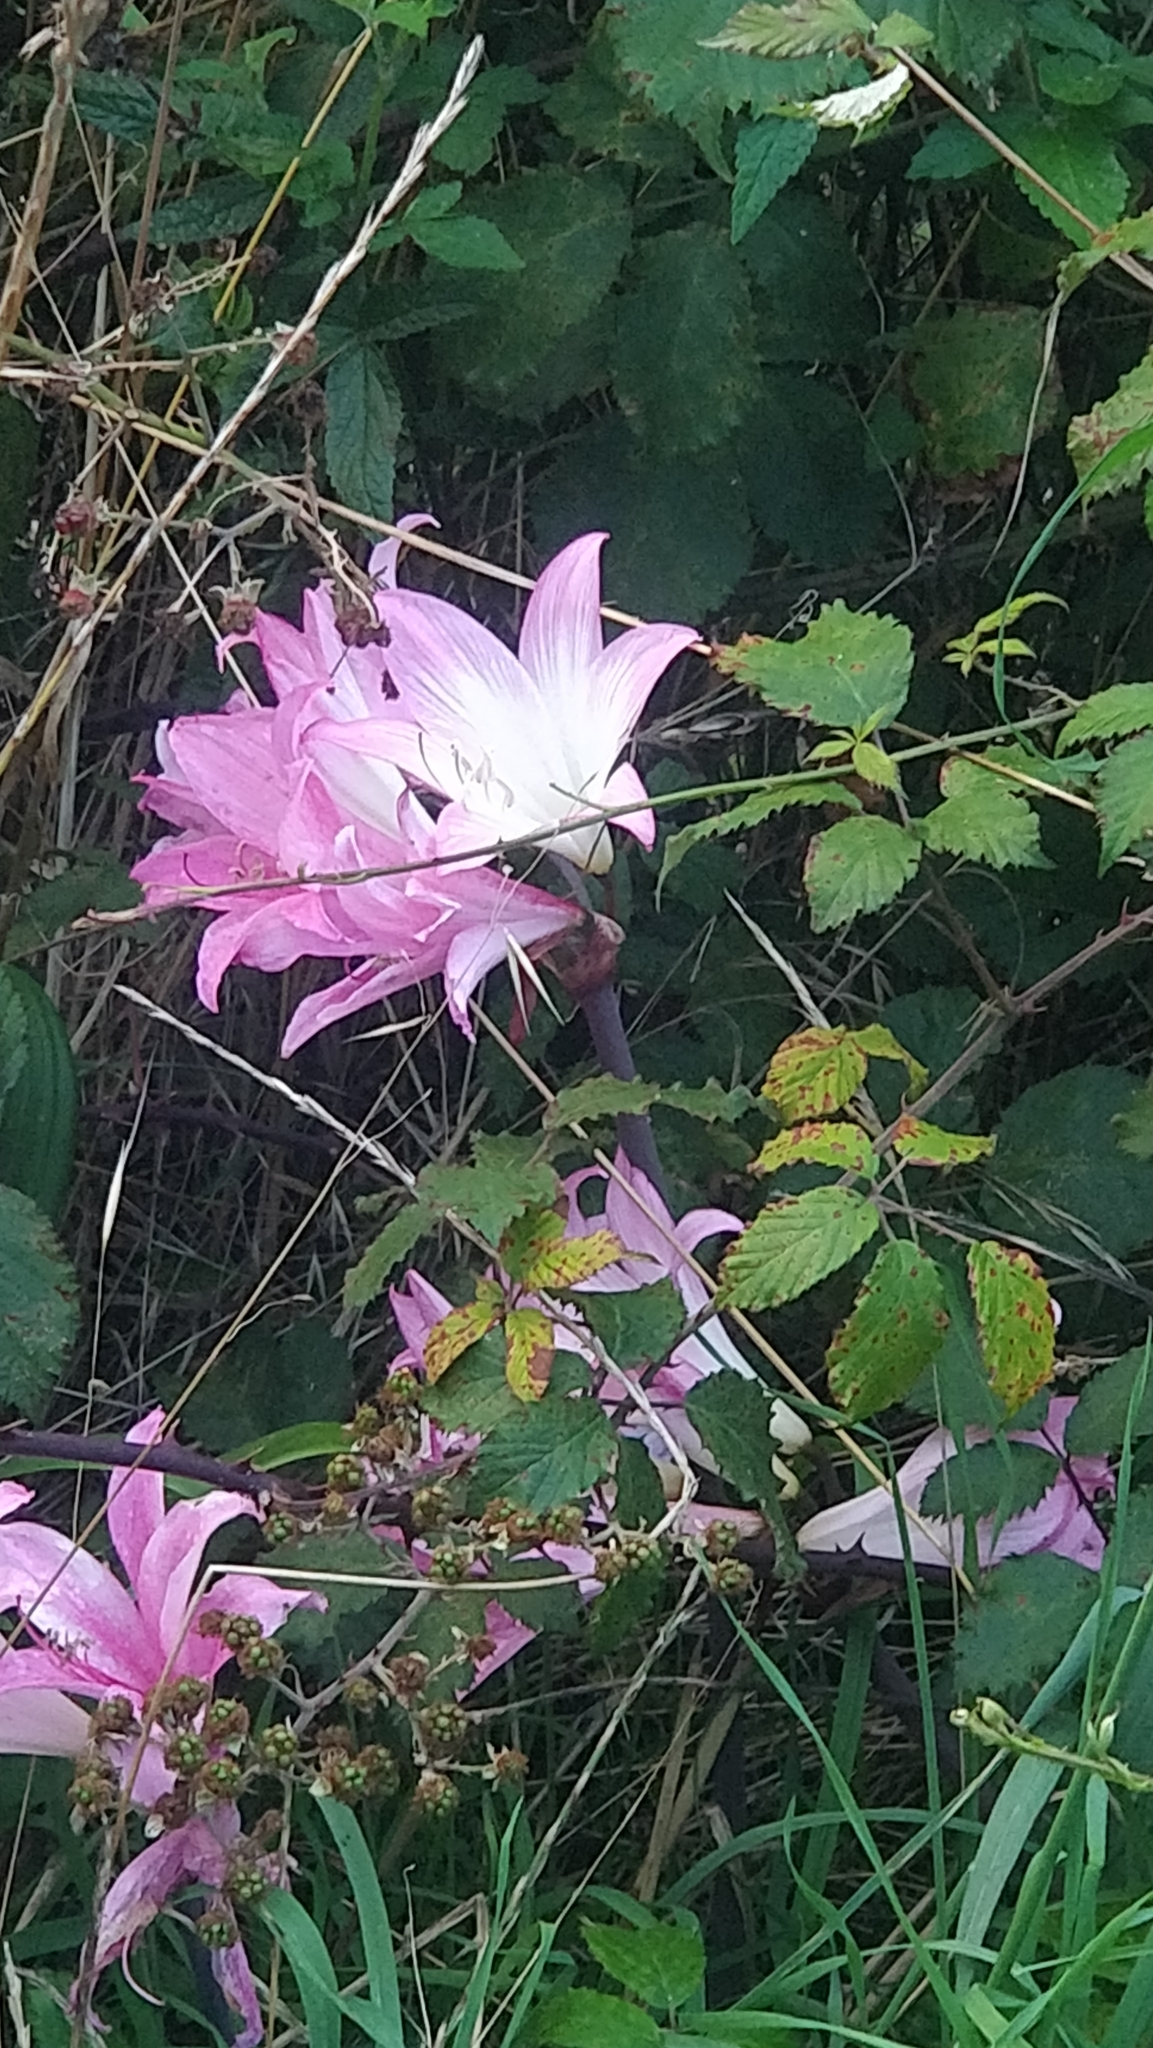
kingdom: Plantae
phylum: Tracheophyta
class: Liliopsida
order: Asparagales
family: Amaryllidaceae
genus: Amaryllis
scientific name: Amaryllis belladonna
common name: Jersey lily
